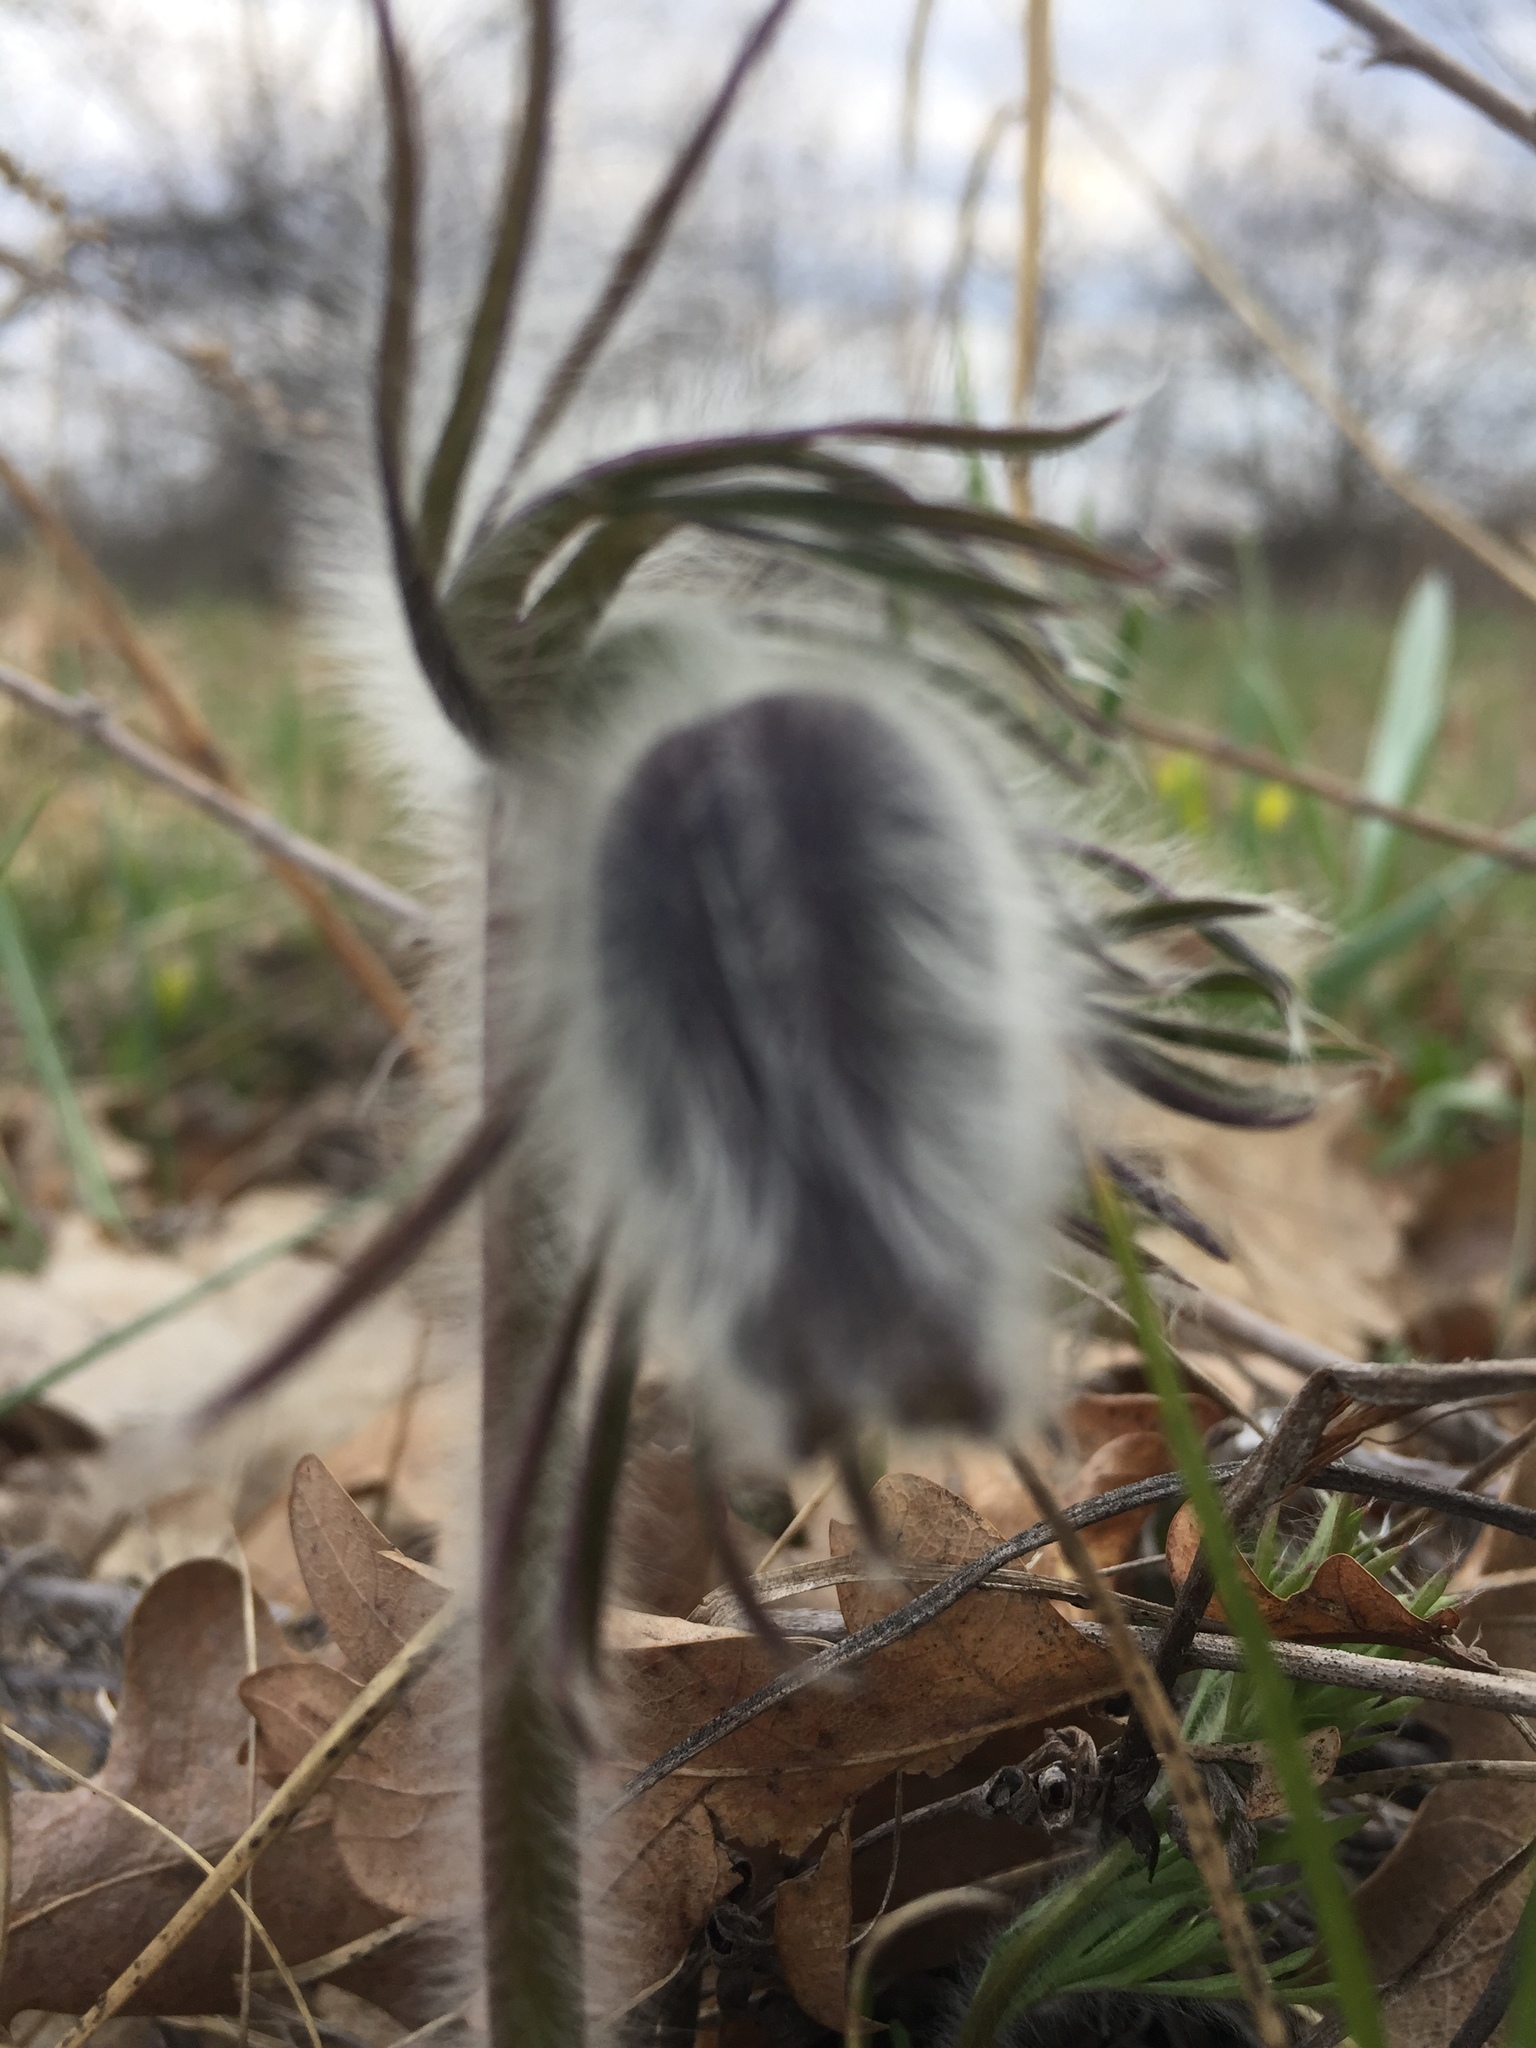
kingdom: Plantae
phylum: Tracheophyta
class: Magnoliopsida
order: Ranunculales
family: Ranunculaceae
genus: Pulsatilla
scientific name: Pulsatilla pratensis
